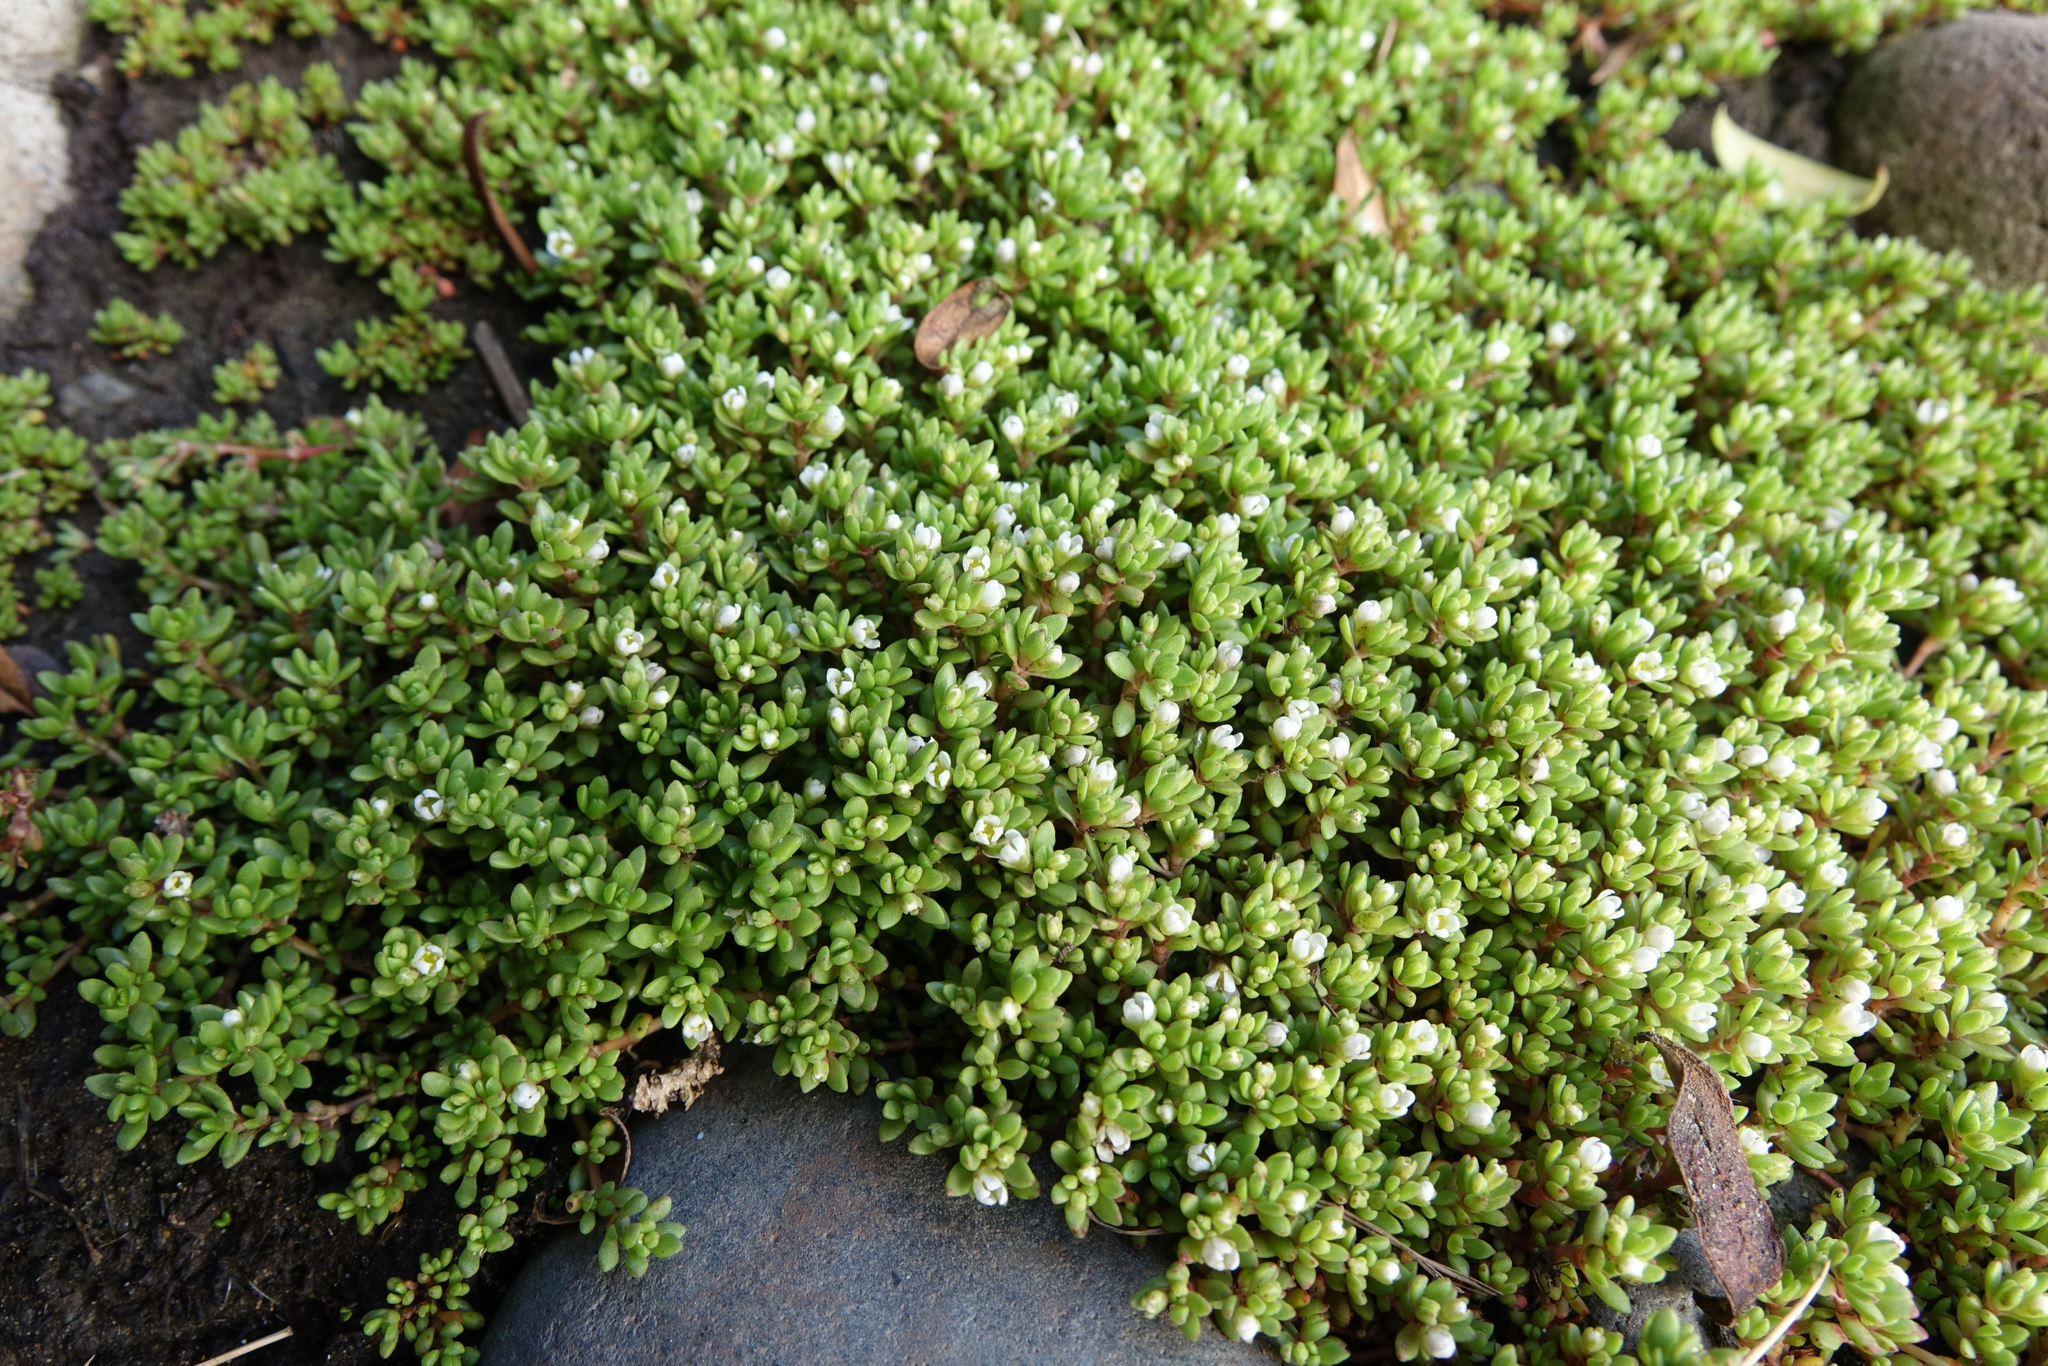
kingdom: Plantae
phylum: Tracheophyta
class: Magnoliopsida
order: Saxifragales
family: Crassulaceae
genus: Crassula
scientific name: Crassula moschata
